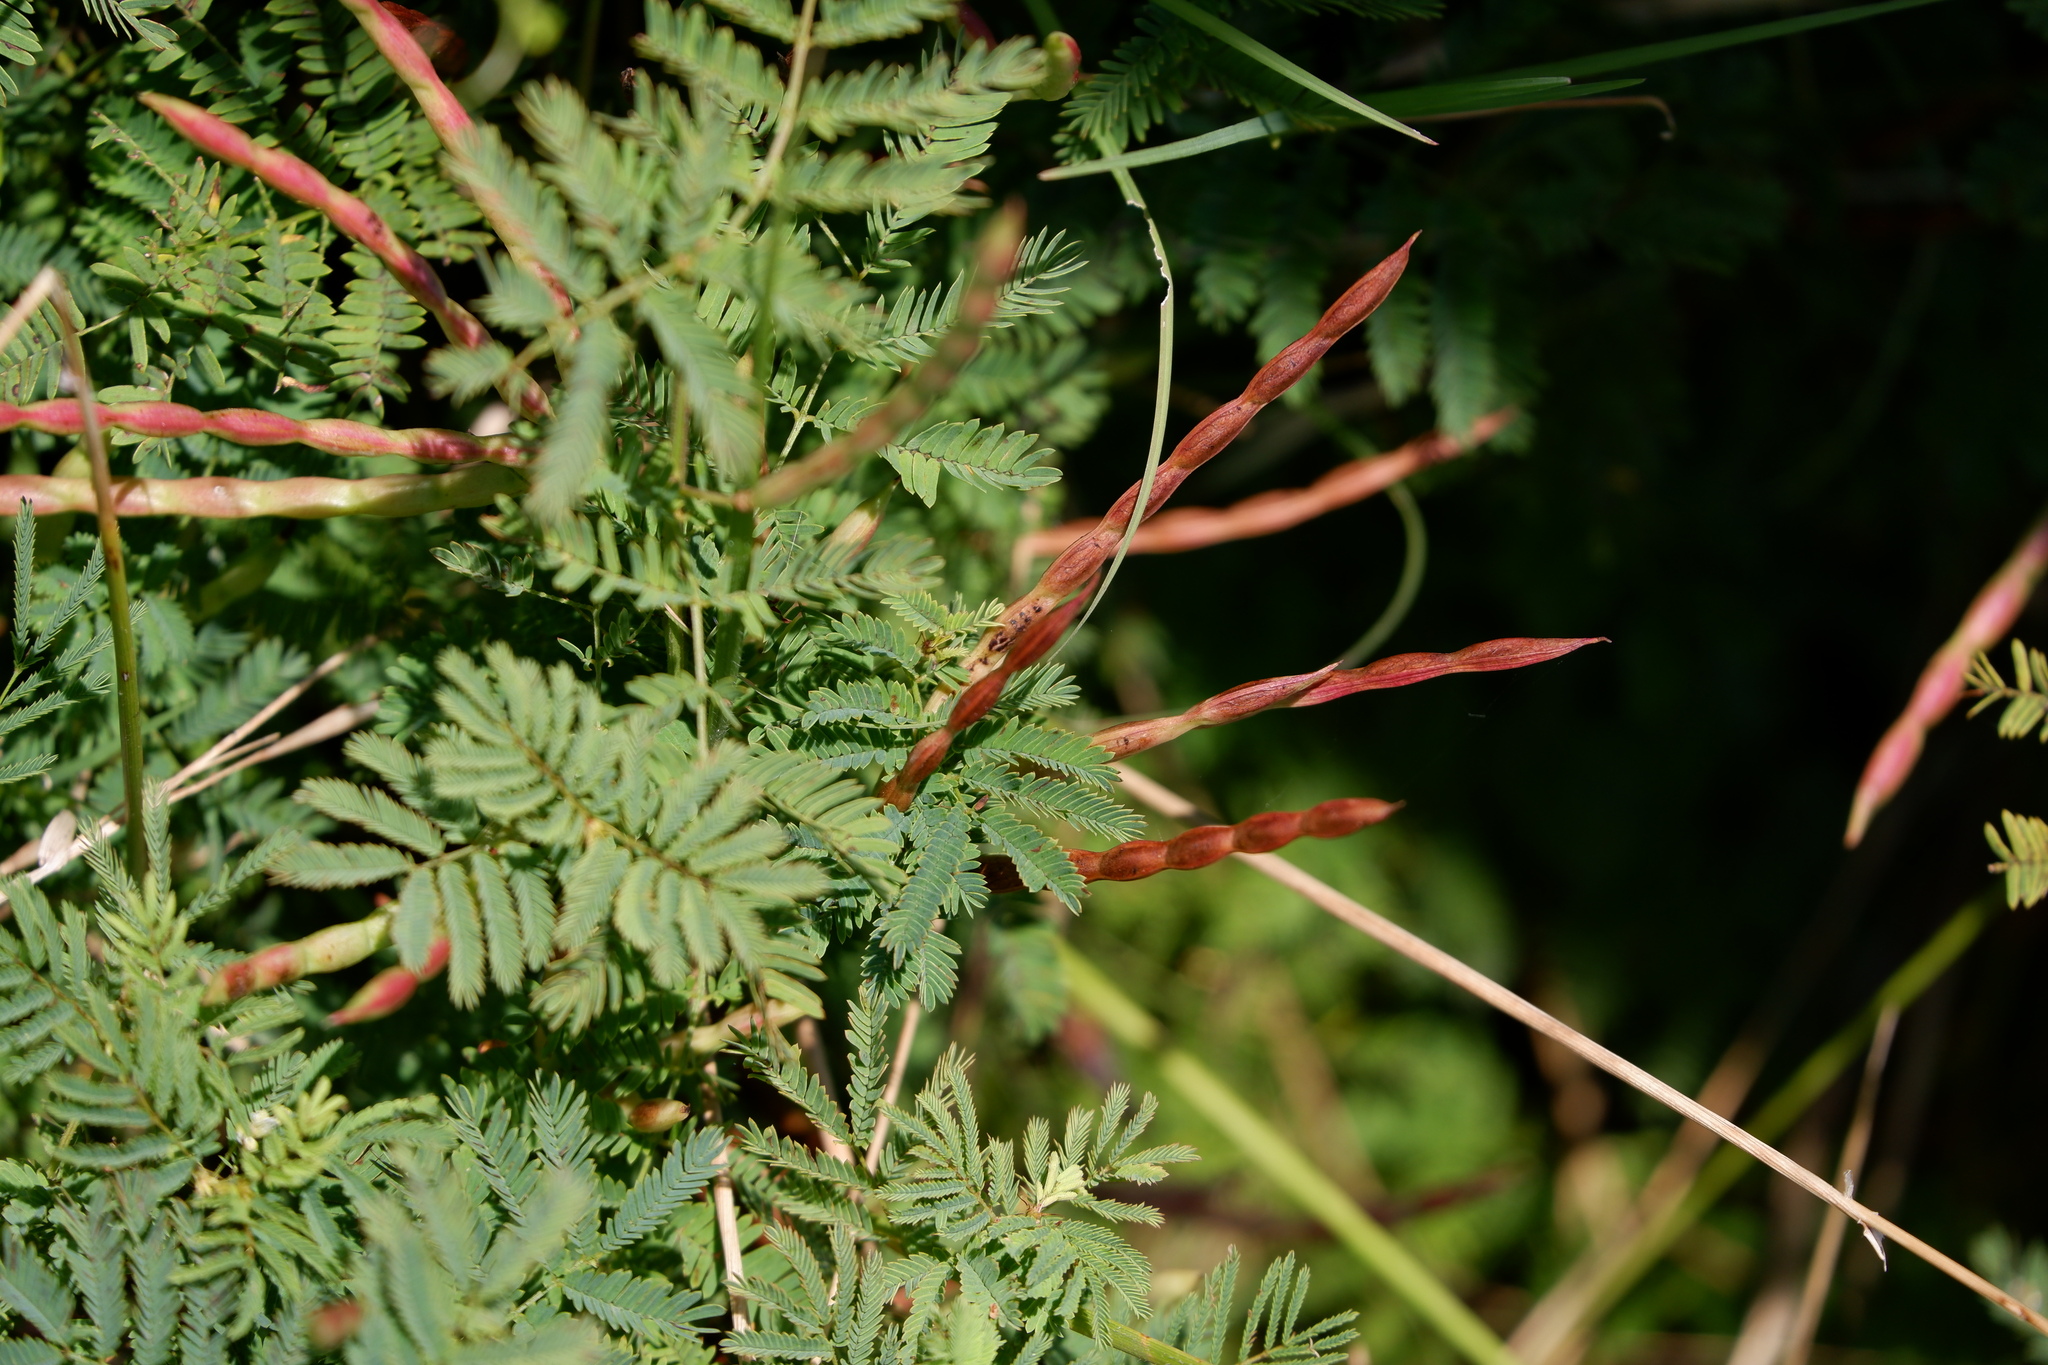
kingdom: Plantae
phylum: Tracheophyta
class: Magnoliopsida
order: Fabales
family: Fabaceae
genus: Desmanthus
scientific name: Desmanthus leptolobus
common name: Prairie-mimosa
